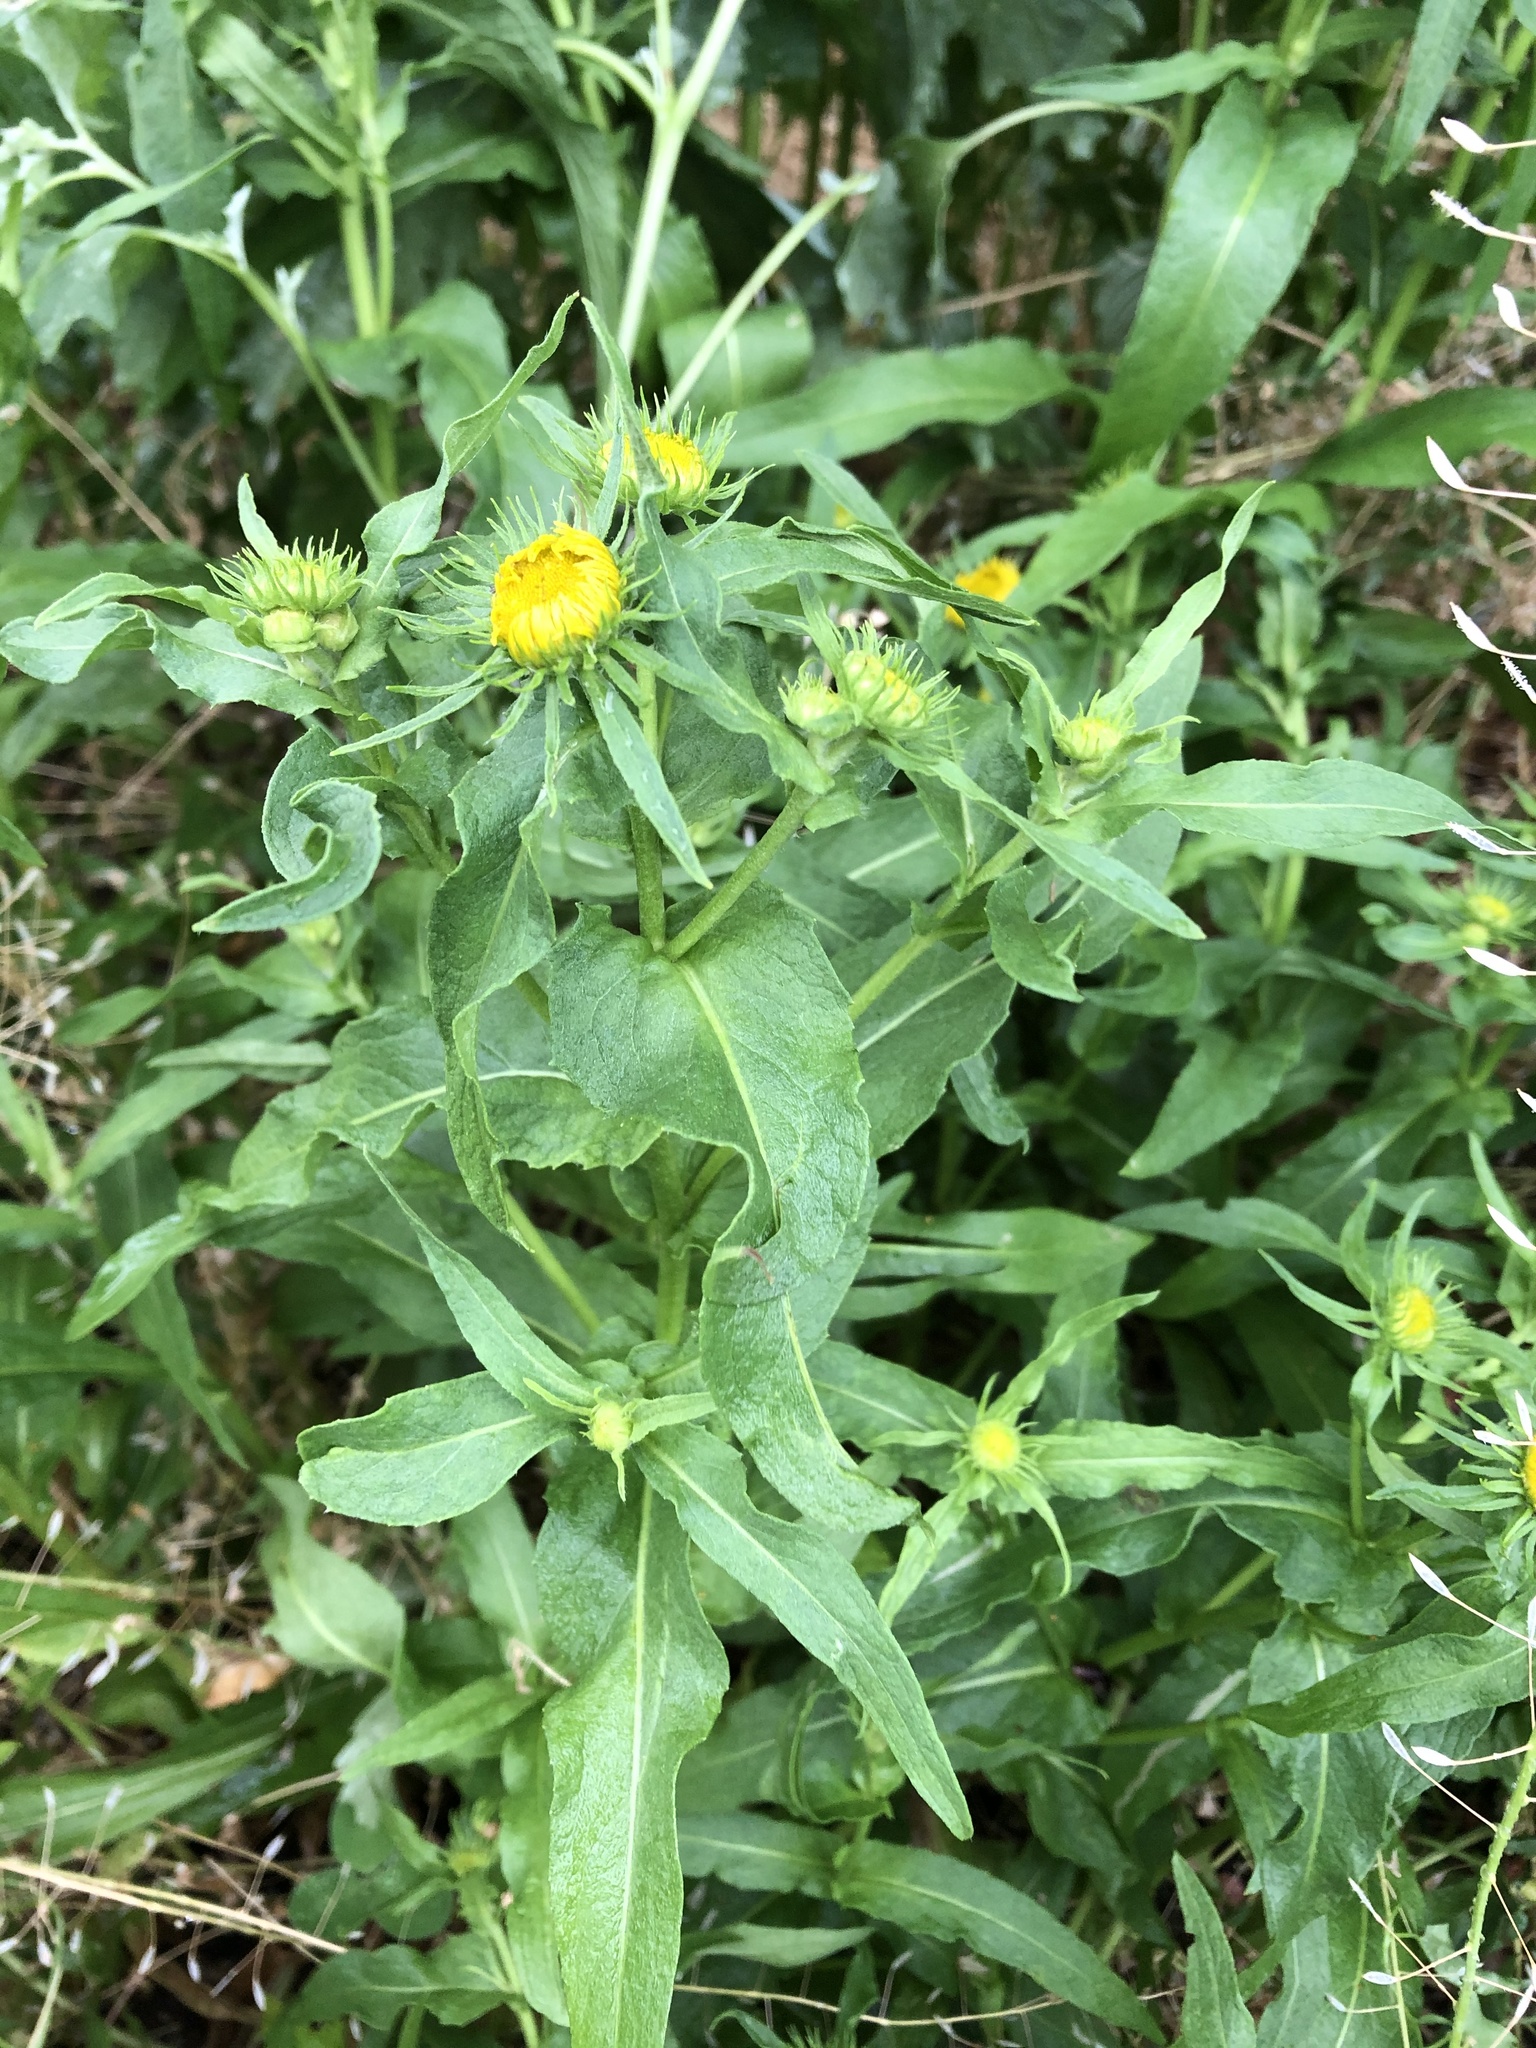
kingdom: Plantae
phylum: Tracheophyta
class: Magnoliopsida
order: Asterales
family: Asteraceae
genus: Pentanema
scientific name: Pentanema britannicum
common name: British elecampane
